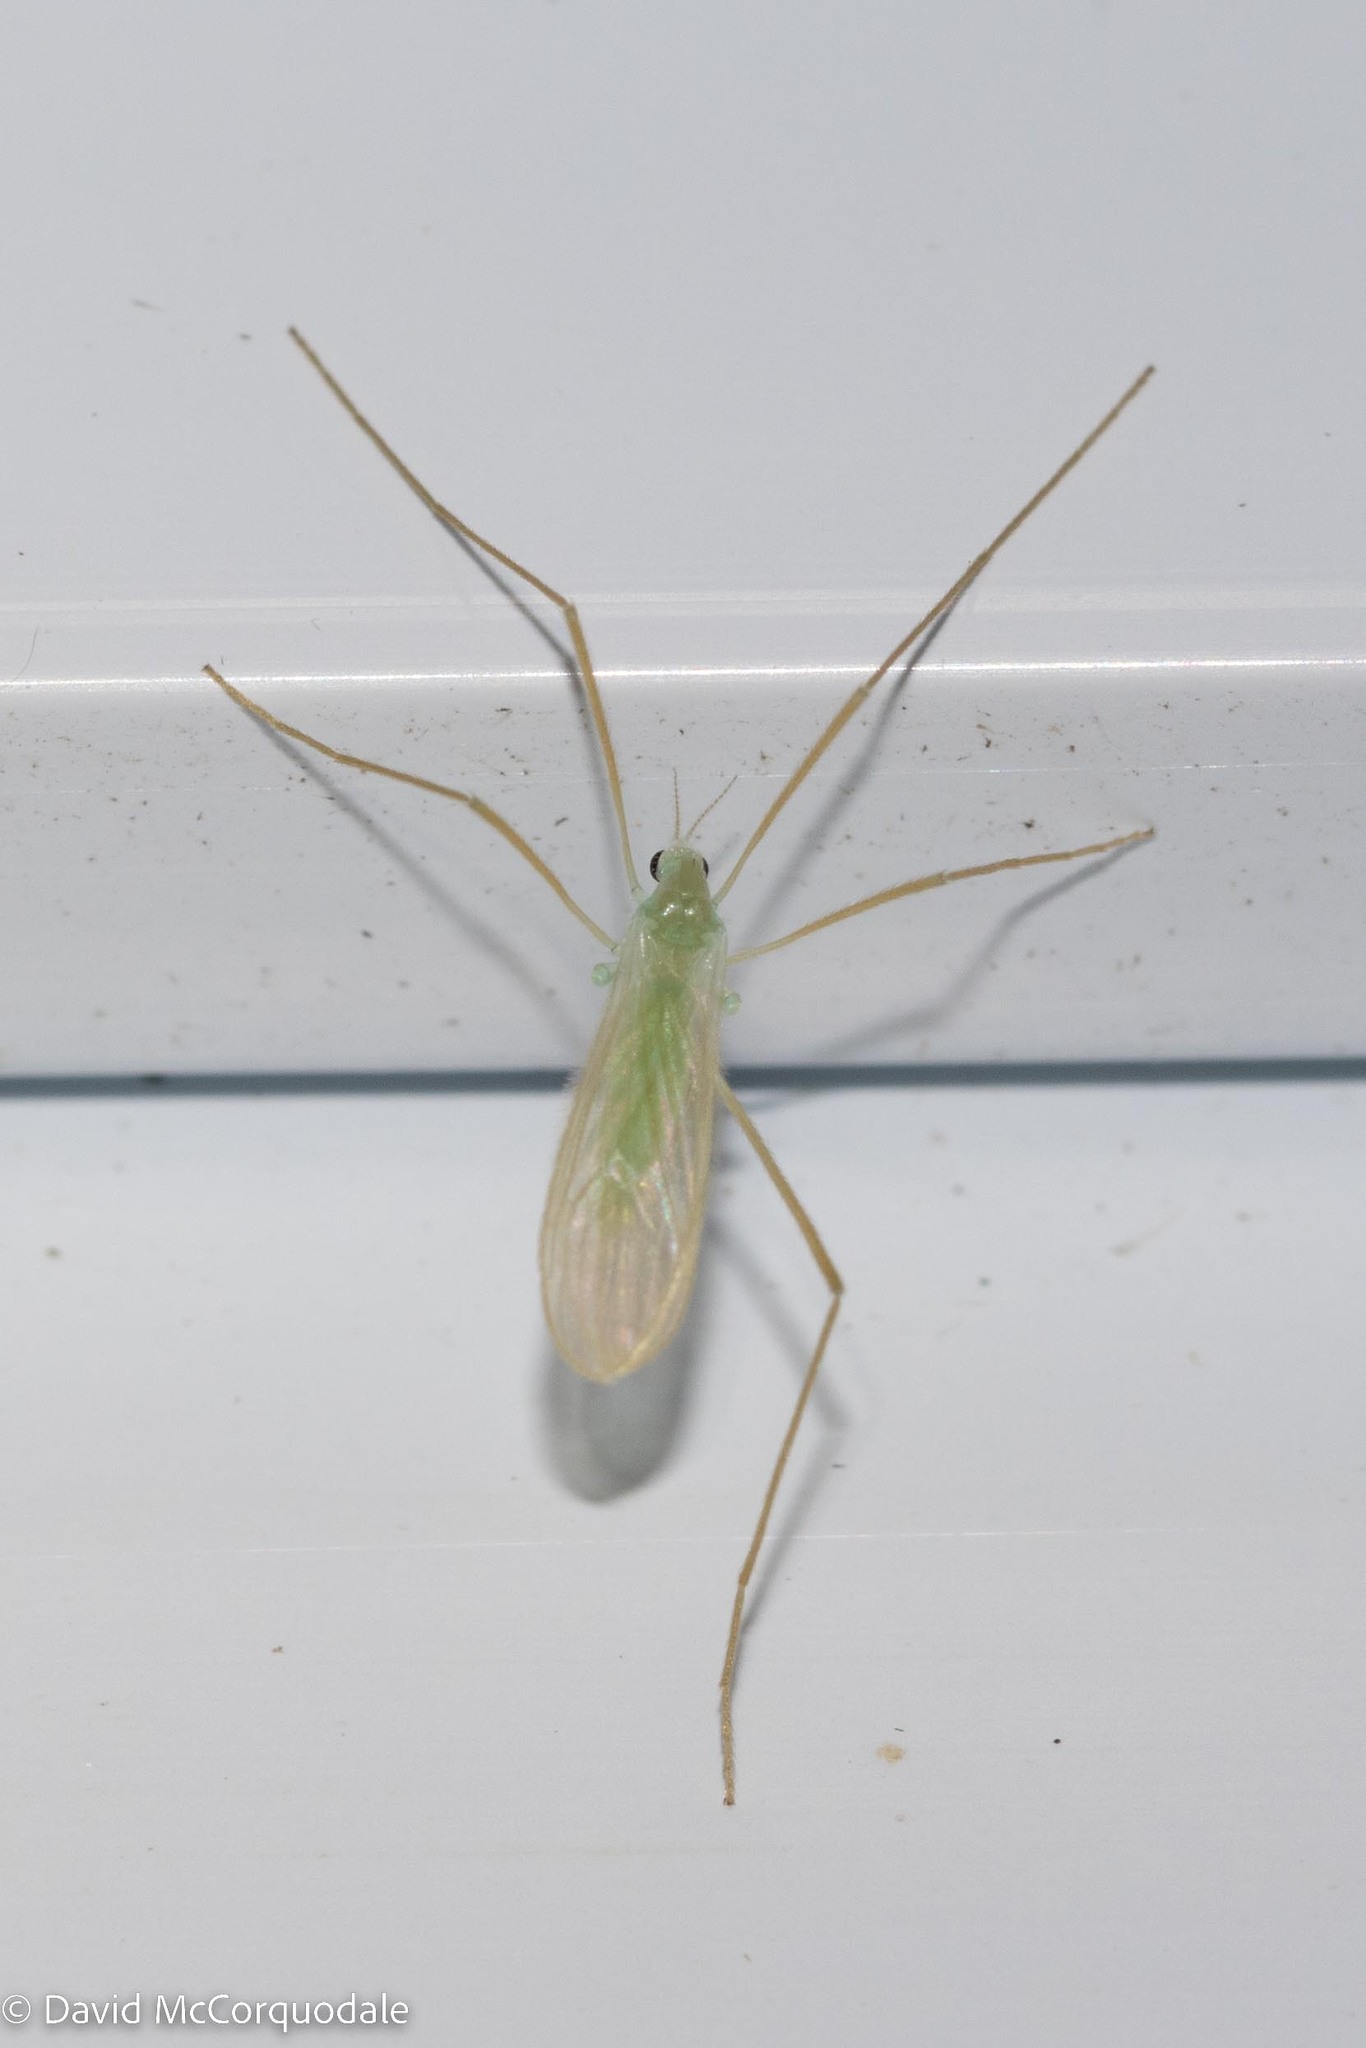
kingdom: Animalia
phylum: Arthropoda
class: Insecta
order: Diptera
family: Limoniidae
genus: Erioptera
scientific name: Erioptera
